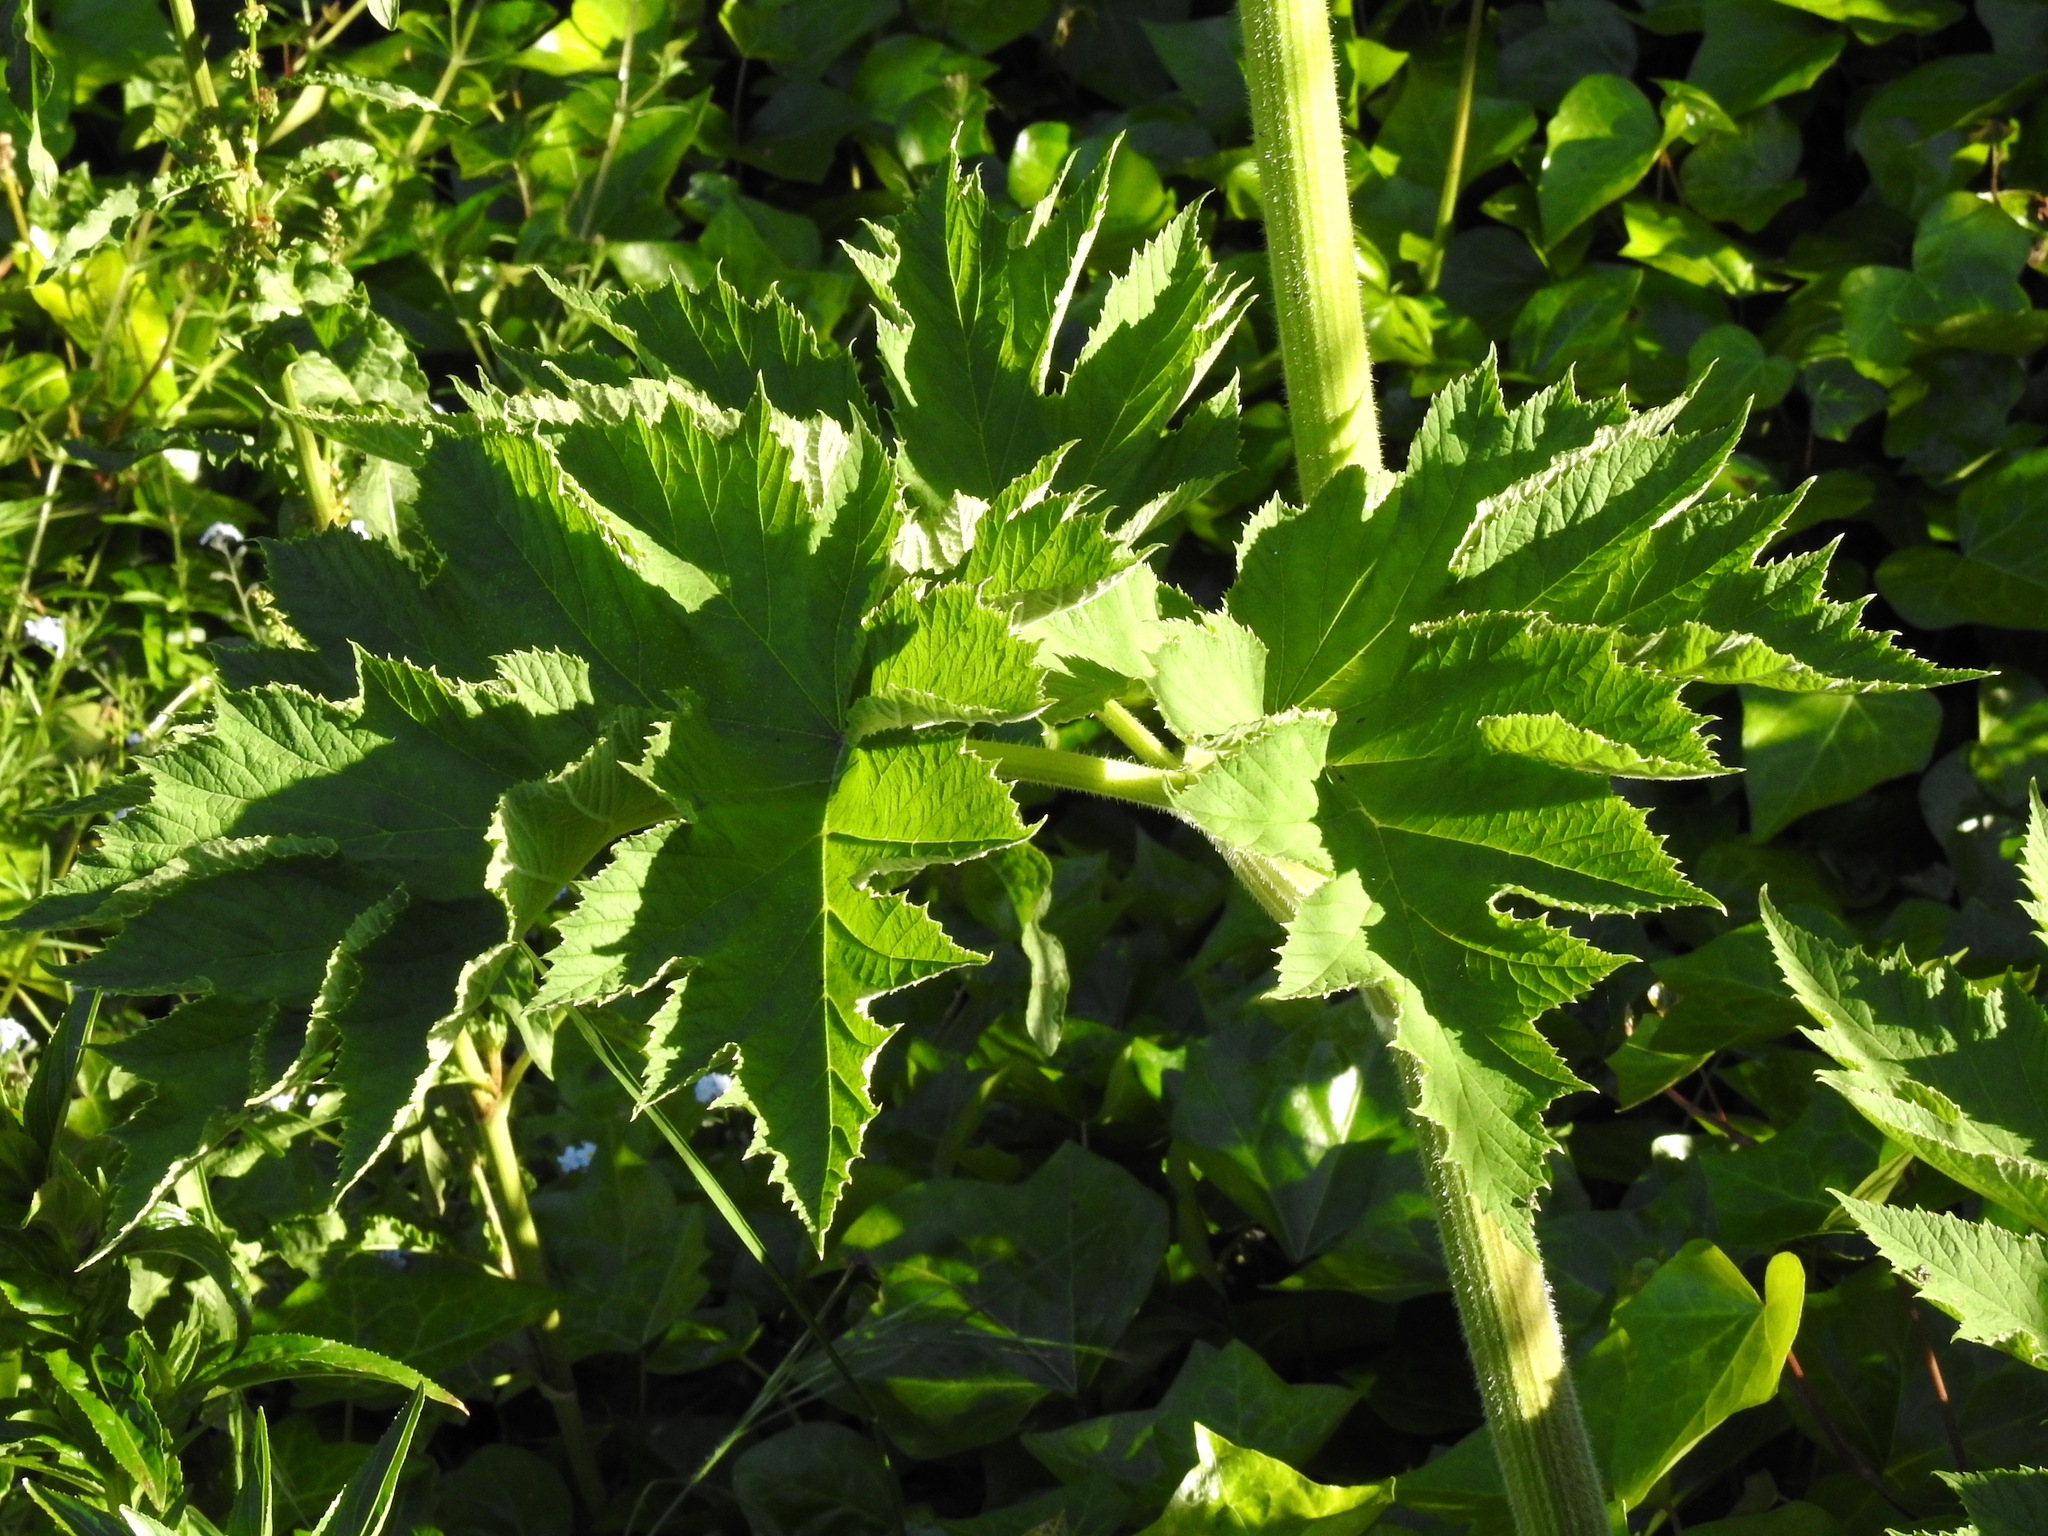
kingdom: Plantae
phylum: Tracheophyta
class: Magnoliopsida
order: Apiales
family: Apiaceae
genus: Heracleum
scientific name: Heracleum maximum
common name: American cow parsnip
